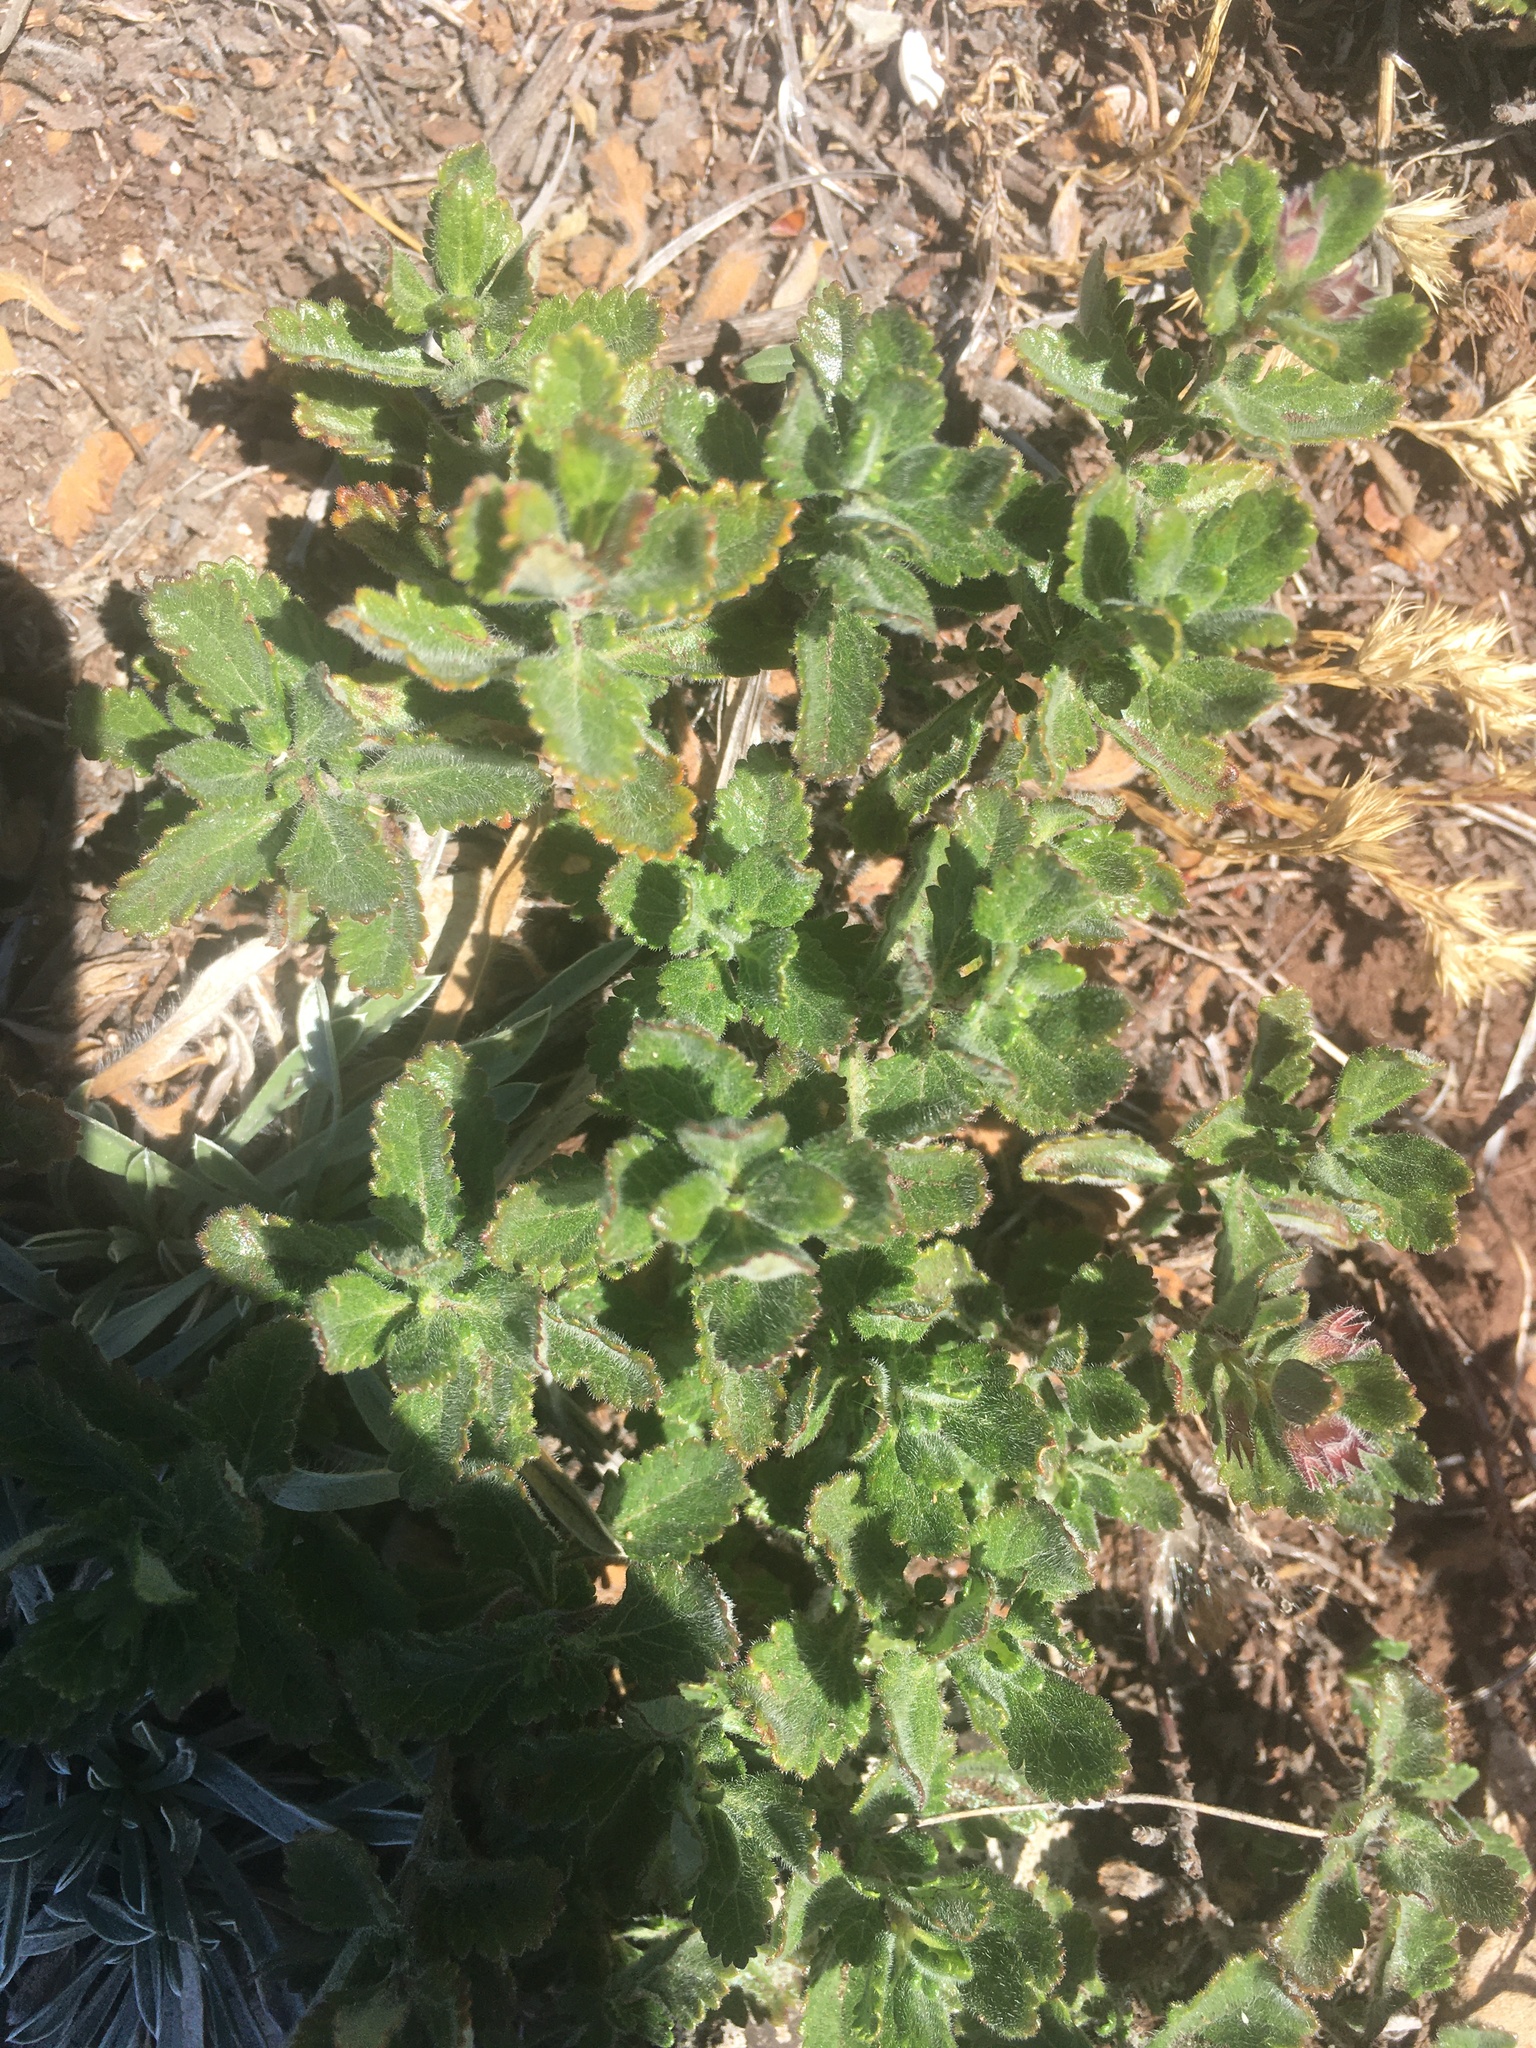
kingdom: Plantae
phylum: Tracheophyta
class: Magnoliopsida
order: Lamiales
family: Lamiaceae
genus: Teucrium
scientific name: Teucrium chamaedrys
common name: Wall germander
